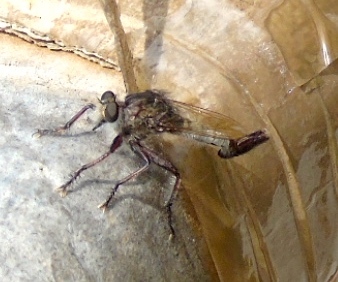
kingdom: Animalia
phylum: Arthropoda
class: Insecta
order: Diptera
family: Asilidae
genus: Efferia
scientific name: Efferia
